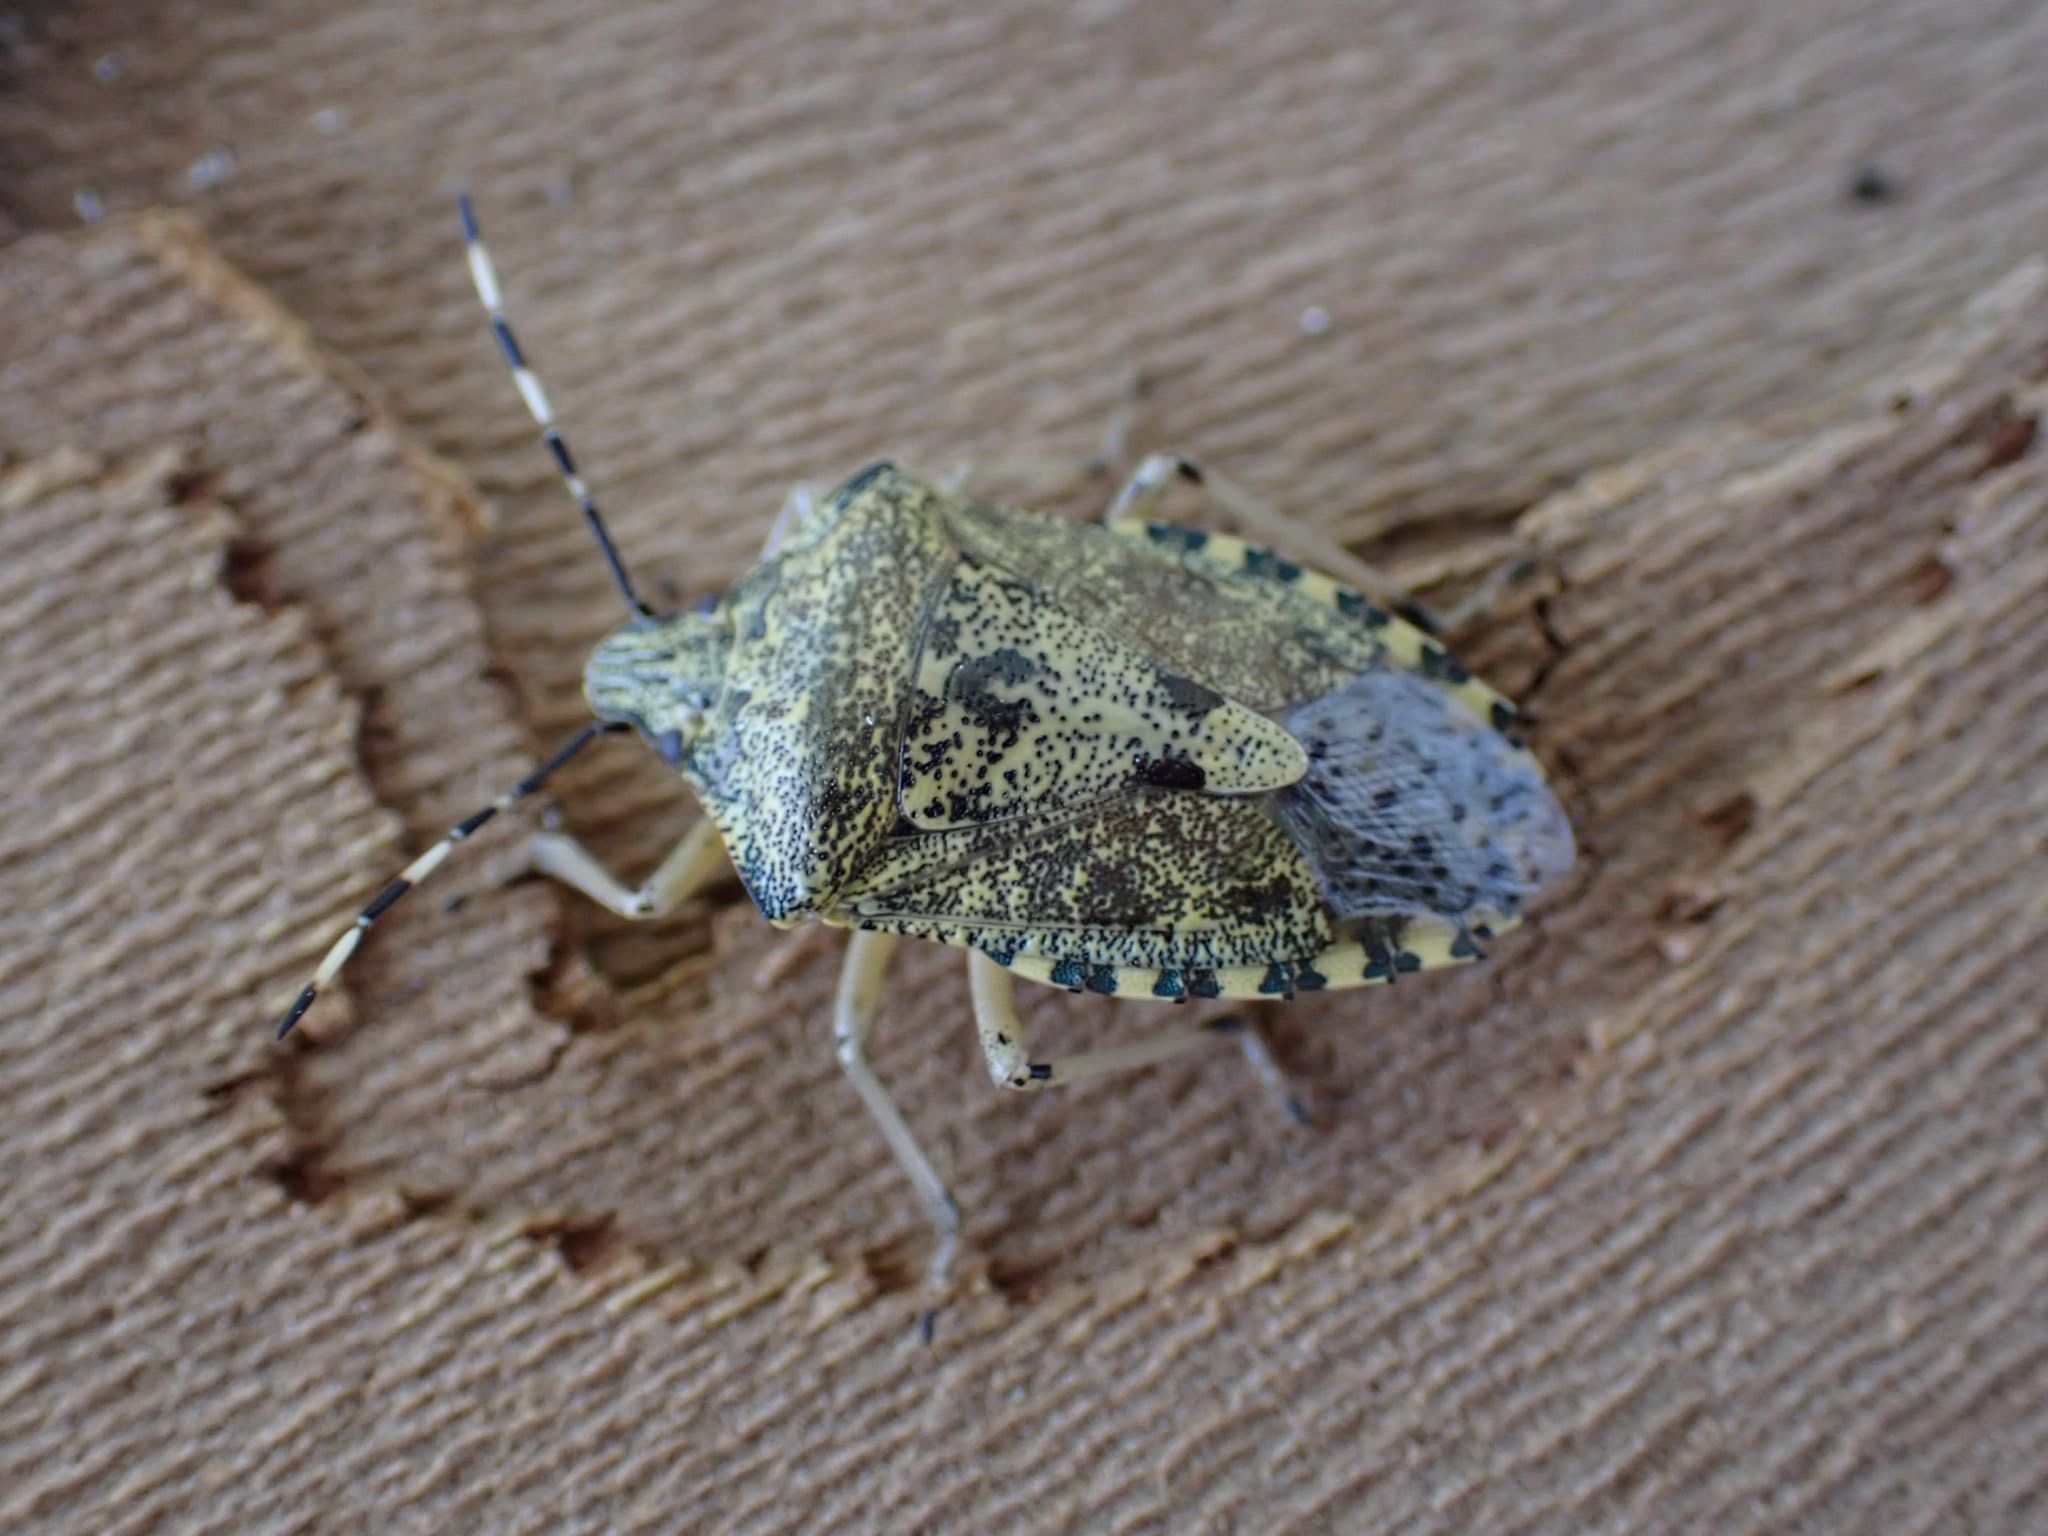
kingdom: Animalia
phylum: Arthropoda
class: Insecta
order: Hemiptera
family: Pentatomidae
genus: Rhaphigaster
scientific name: Rhaphigaster nebulosa
